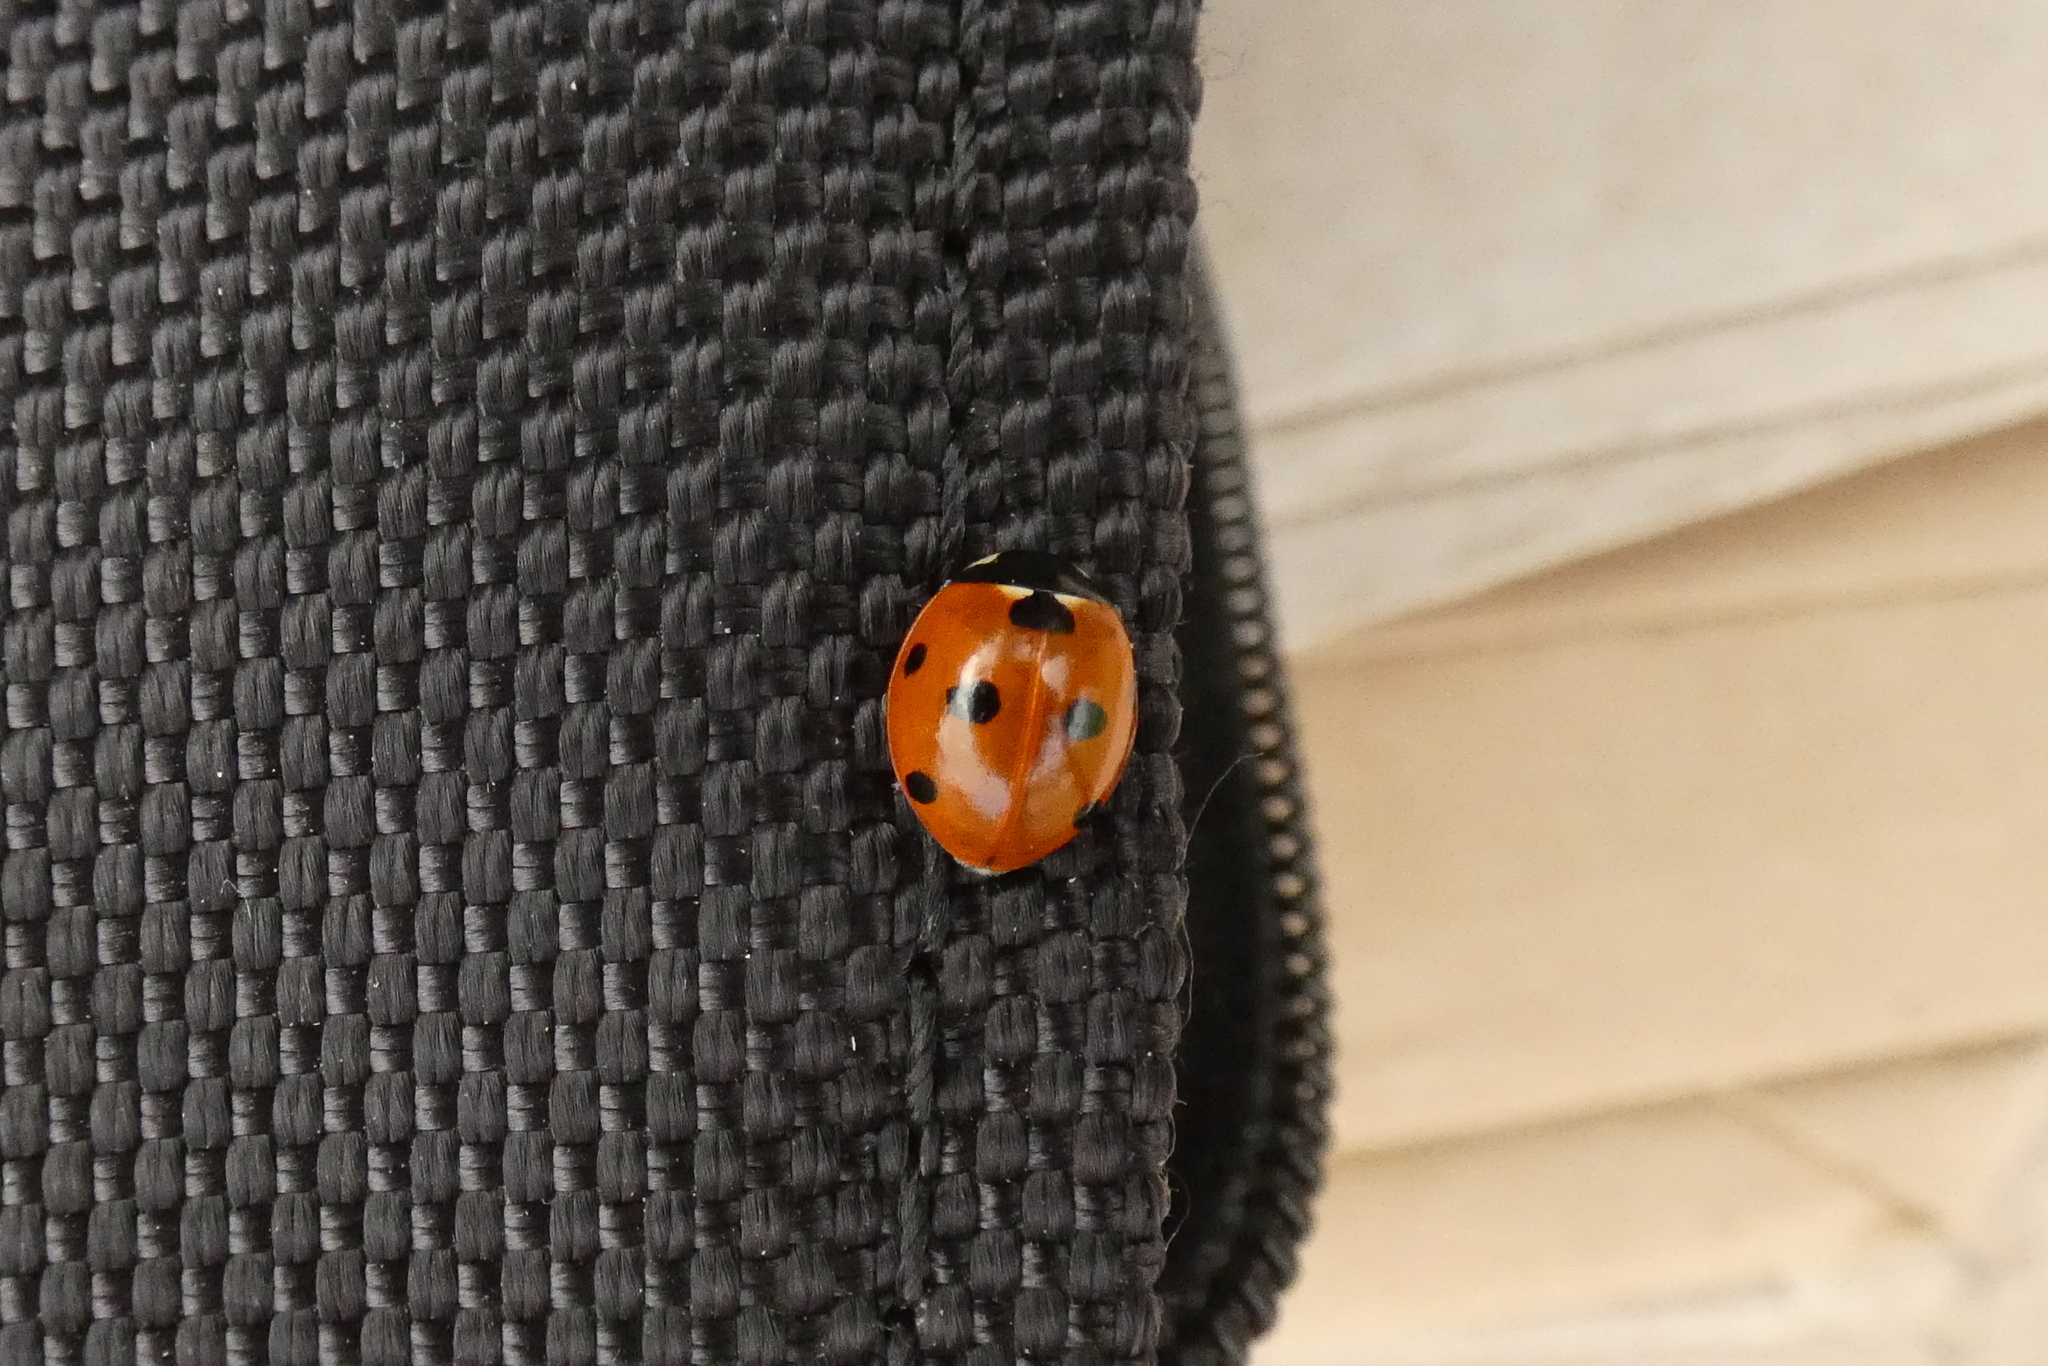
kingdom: Animalia
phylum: Arthropoda
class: Insecta
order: Coleoptera
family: Coccinellidae
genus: Coccinella
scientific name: Coccinella septempunctata
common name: Sevenspotted lady beetle
